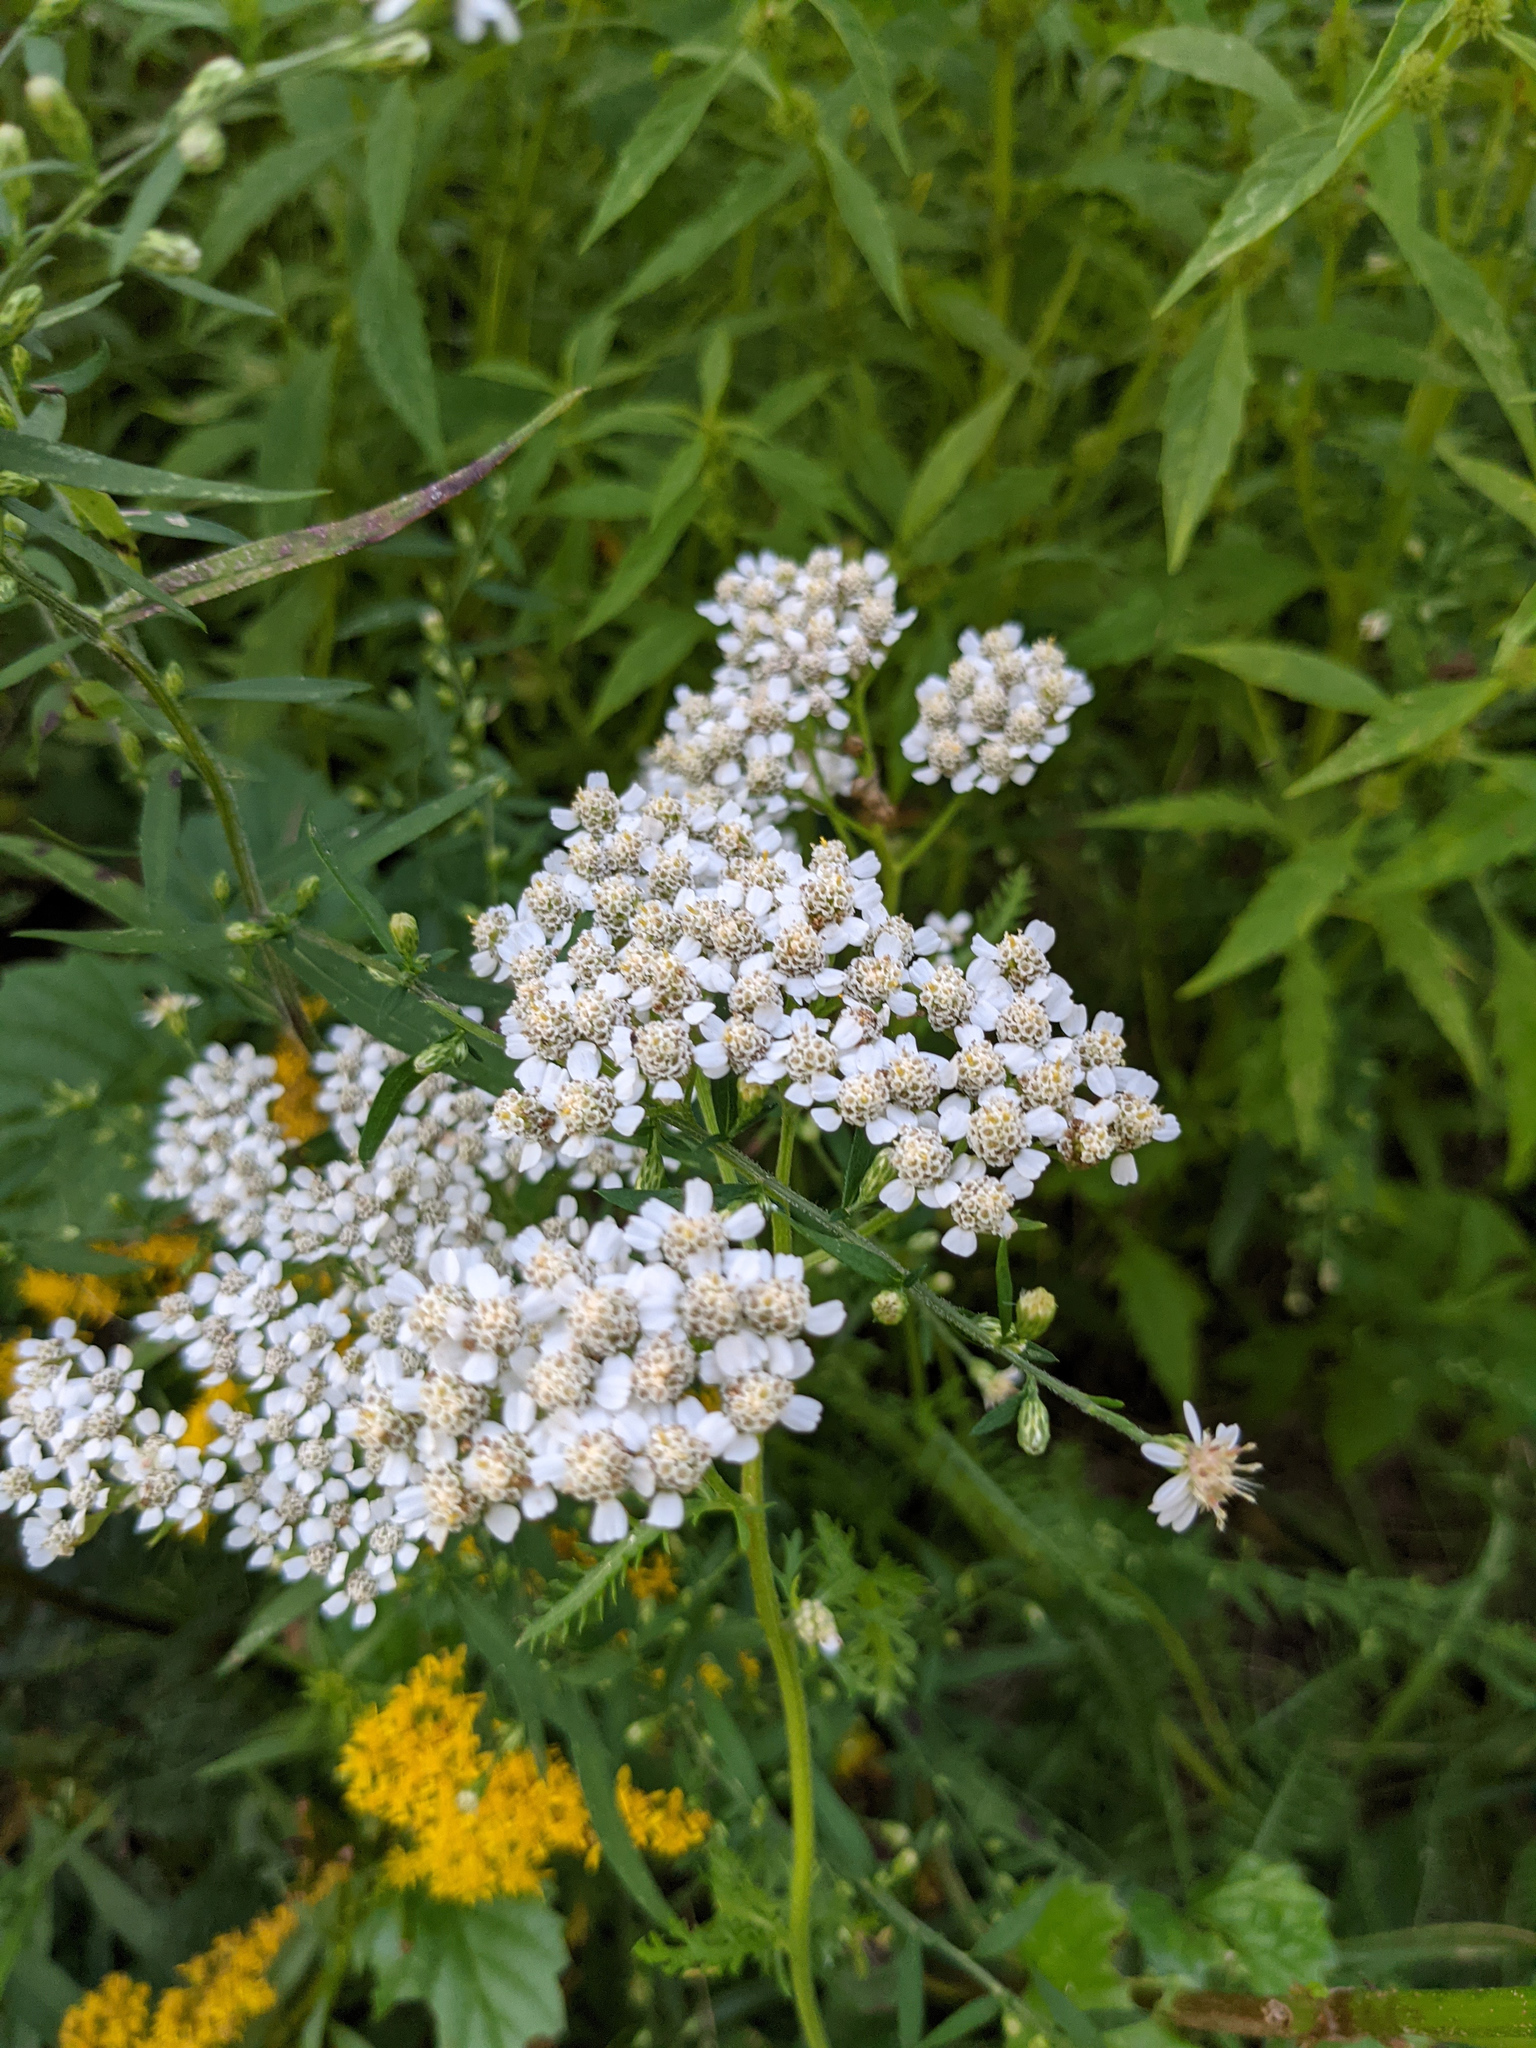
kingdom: Plantae
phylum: Tracheophyta
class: Magnoliopsida
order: Asterales
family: Asteraceae
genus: Achillea
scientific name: Achillea millefolium
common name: Yarrow
